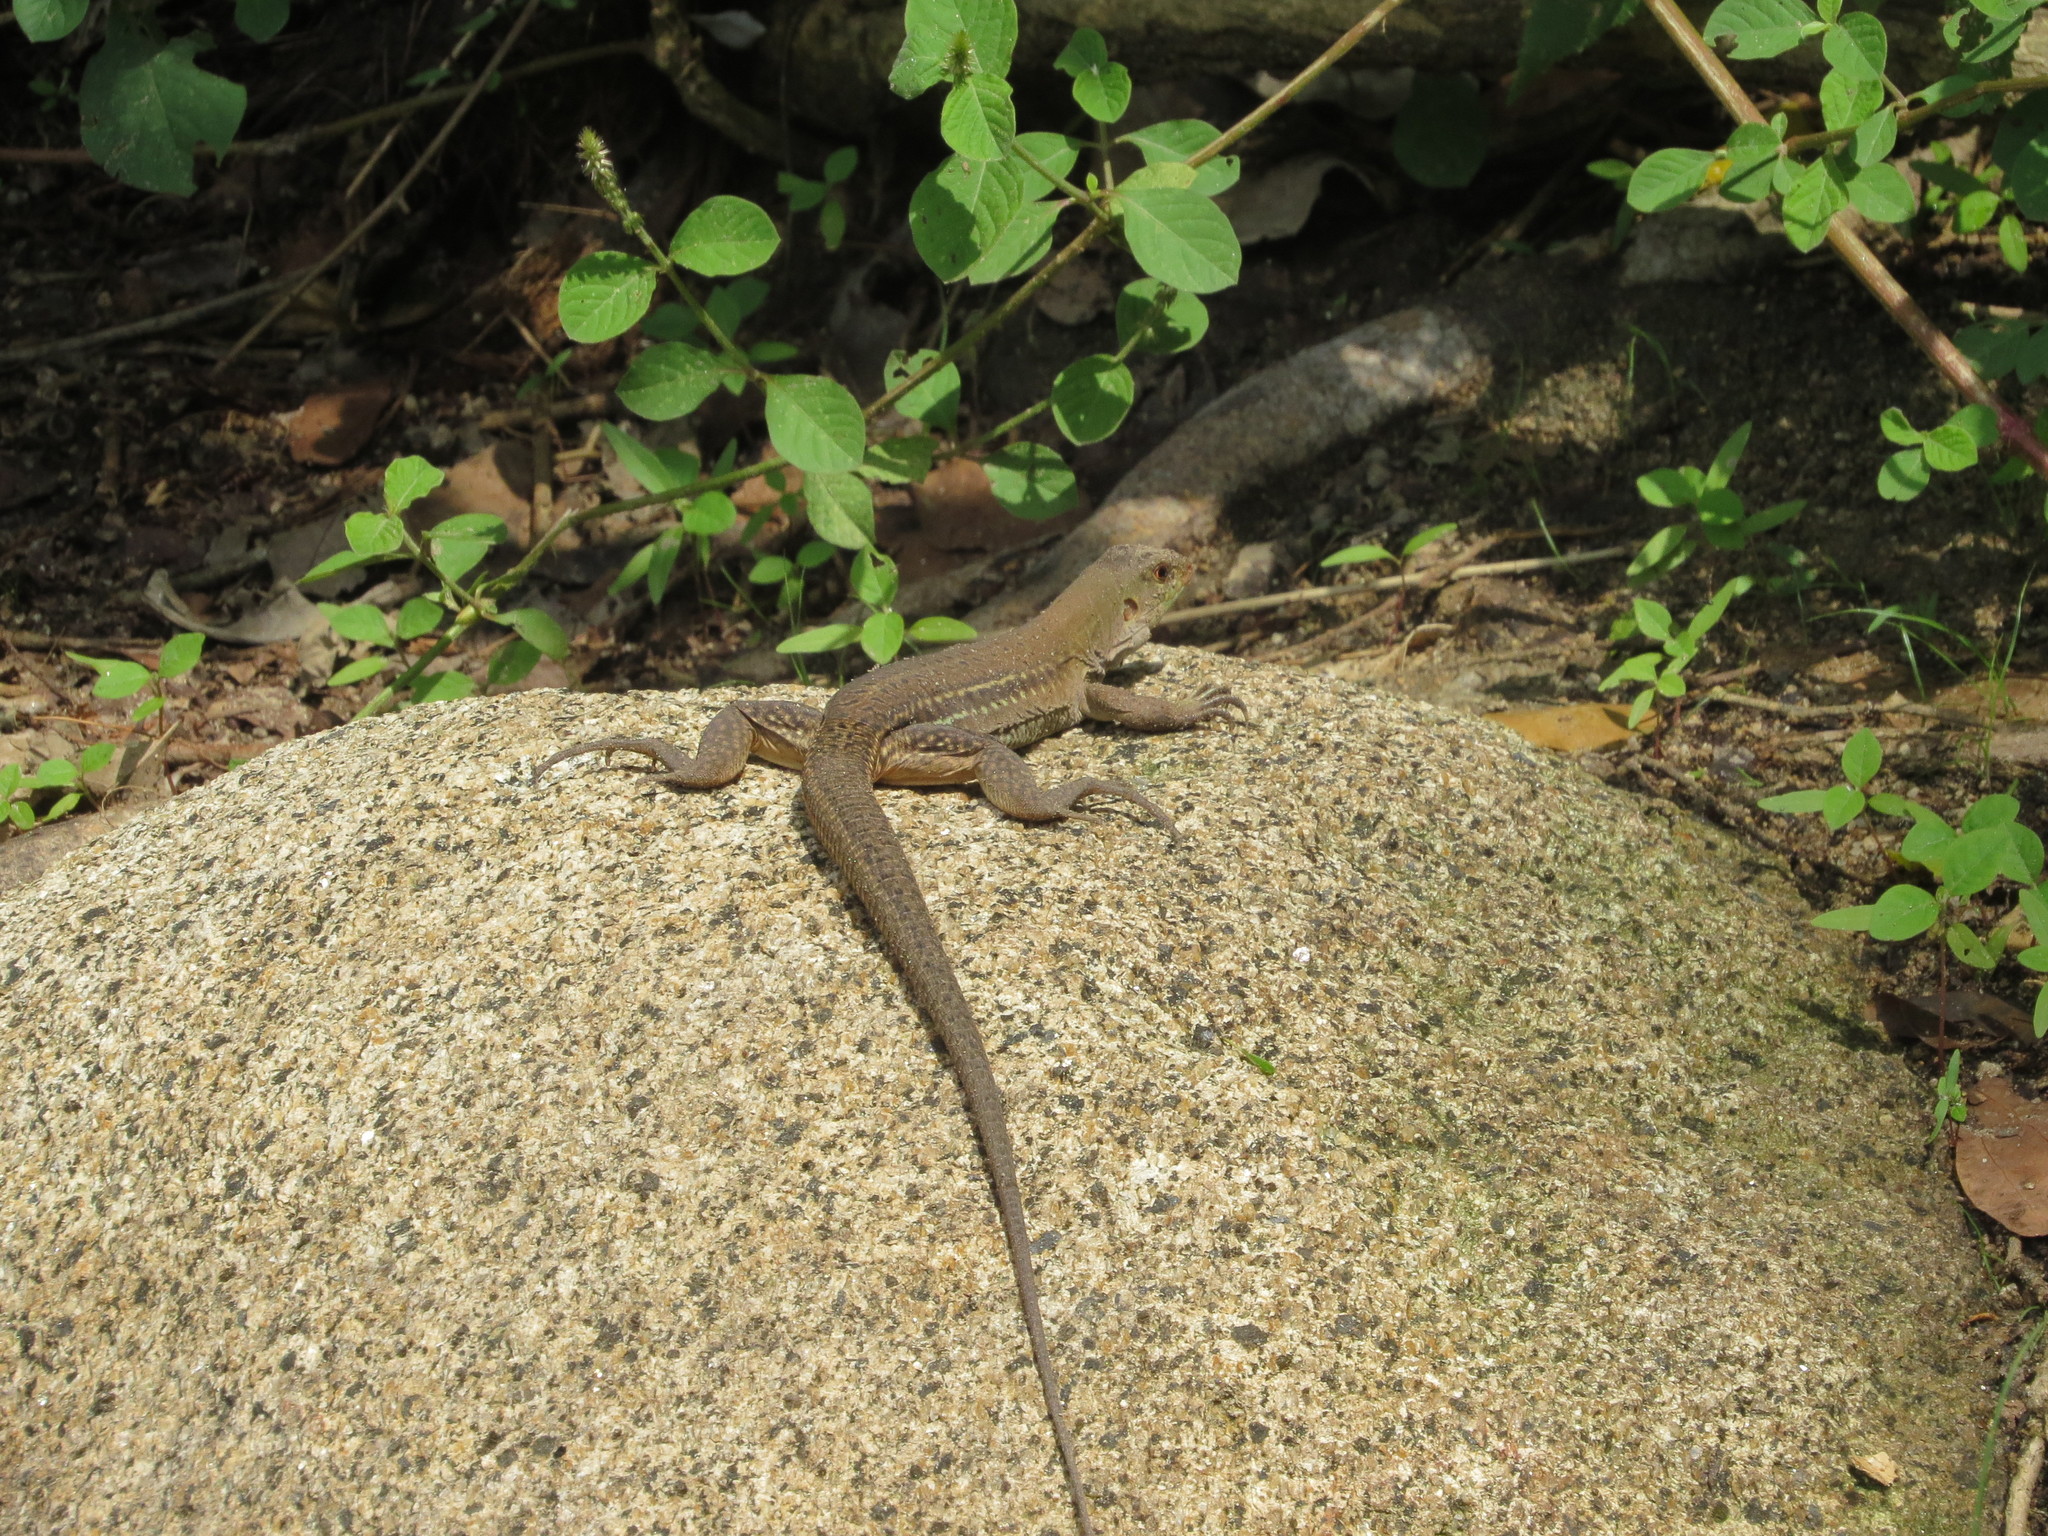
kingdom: Animalia
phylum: Chordata
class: Squamata
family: Teiidae
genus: Ameiva
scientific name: Ameiva bifrontata
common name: Cope's ameiva
